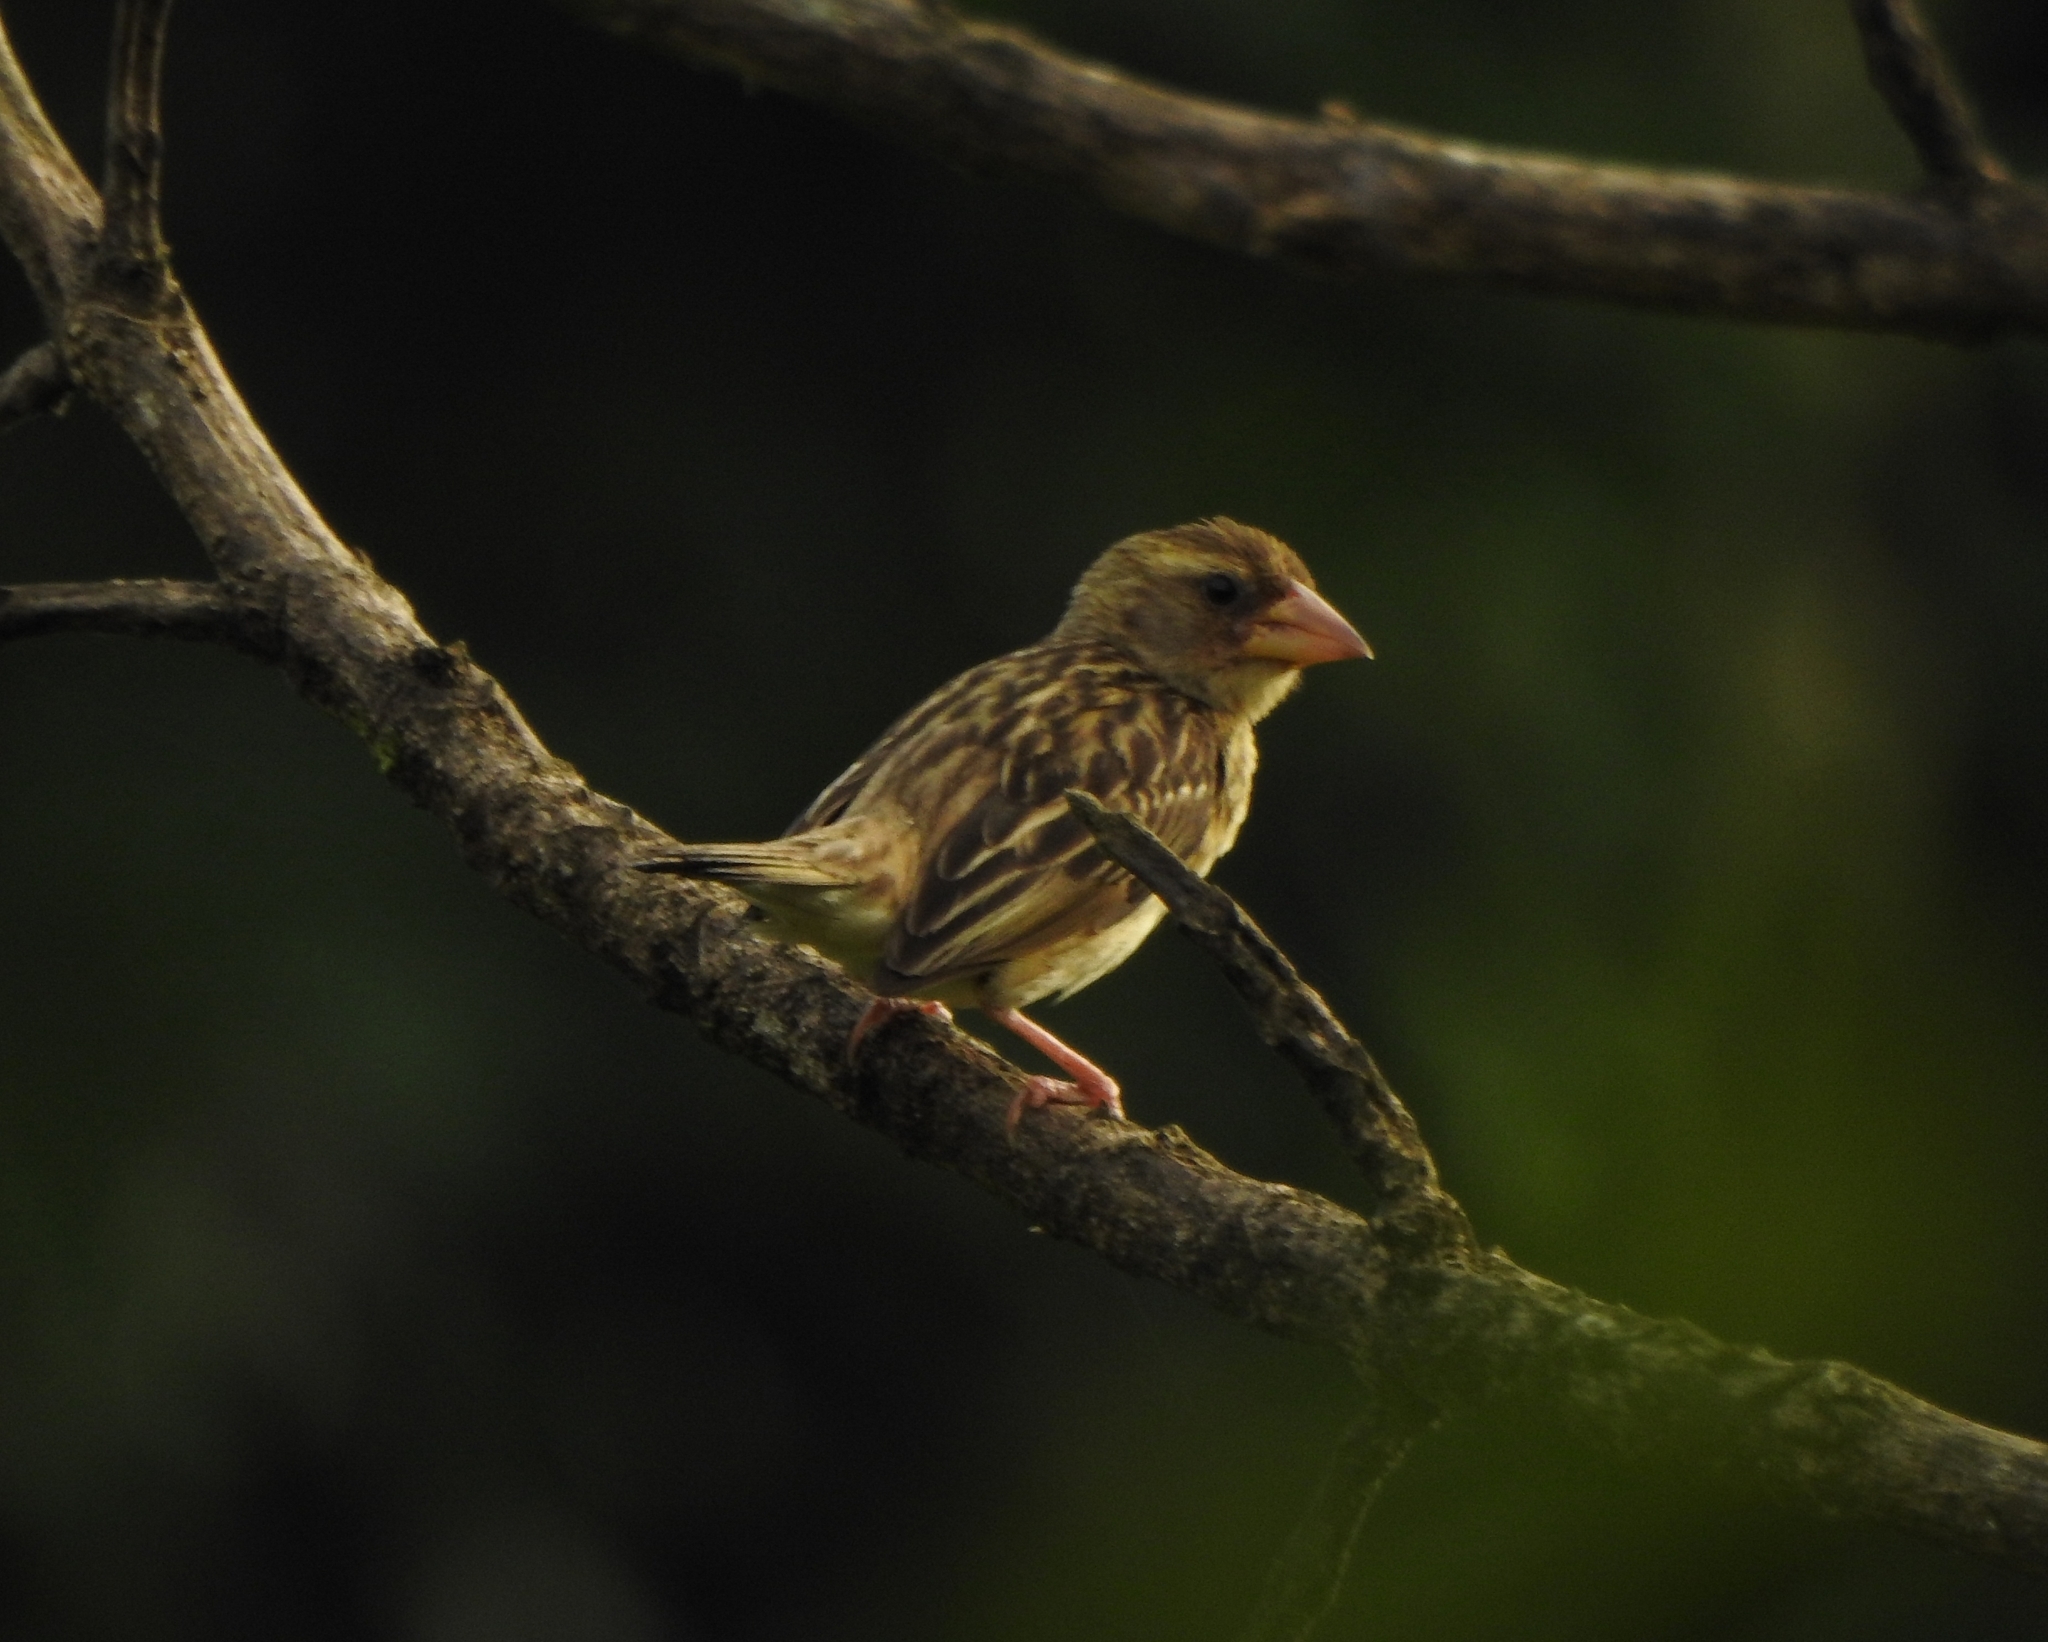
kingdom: Animalia
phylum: Chordata
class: Aves
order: Passeriformes
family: Ploceidae
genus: Ploceus
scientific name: Ploceus philippinus
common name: Baya weaver
